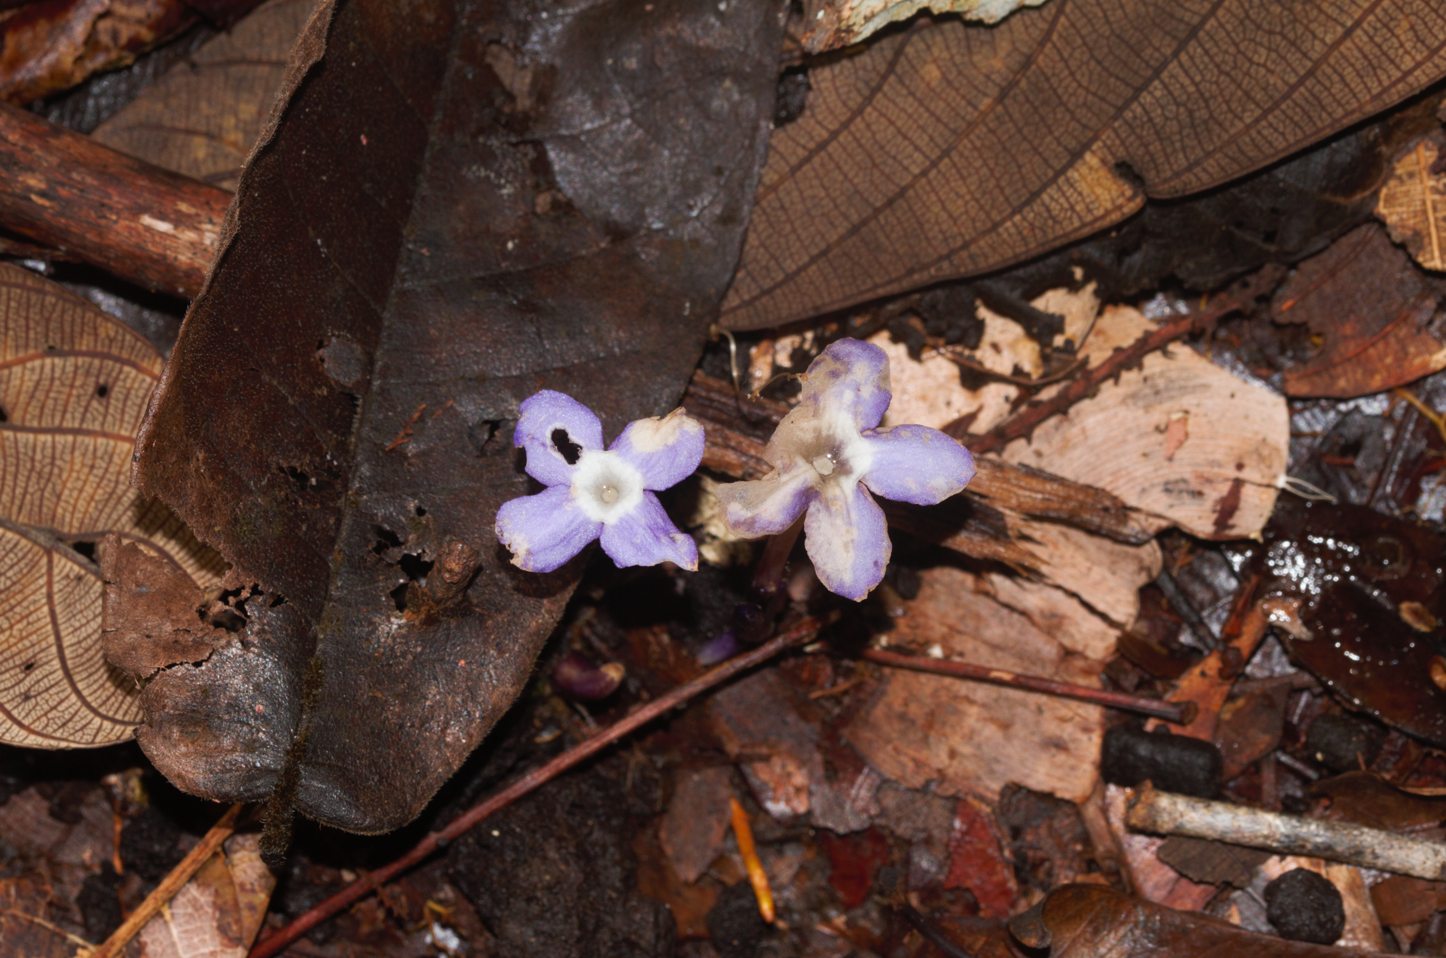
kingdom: Plantae
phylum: Tracheophyta
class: Magnoliopsida
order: Gentianales
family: Gentianaceae
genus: Voyria
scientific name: Voyria caerulea
